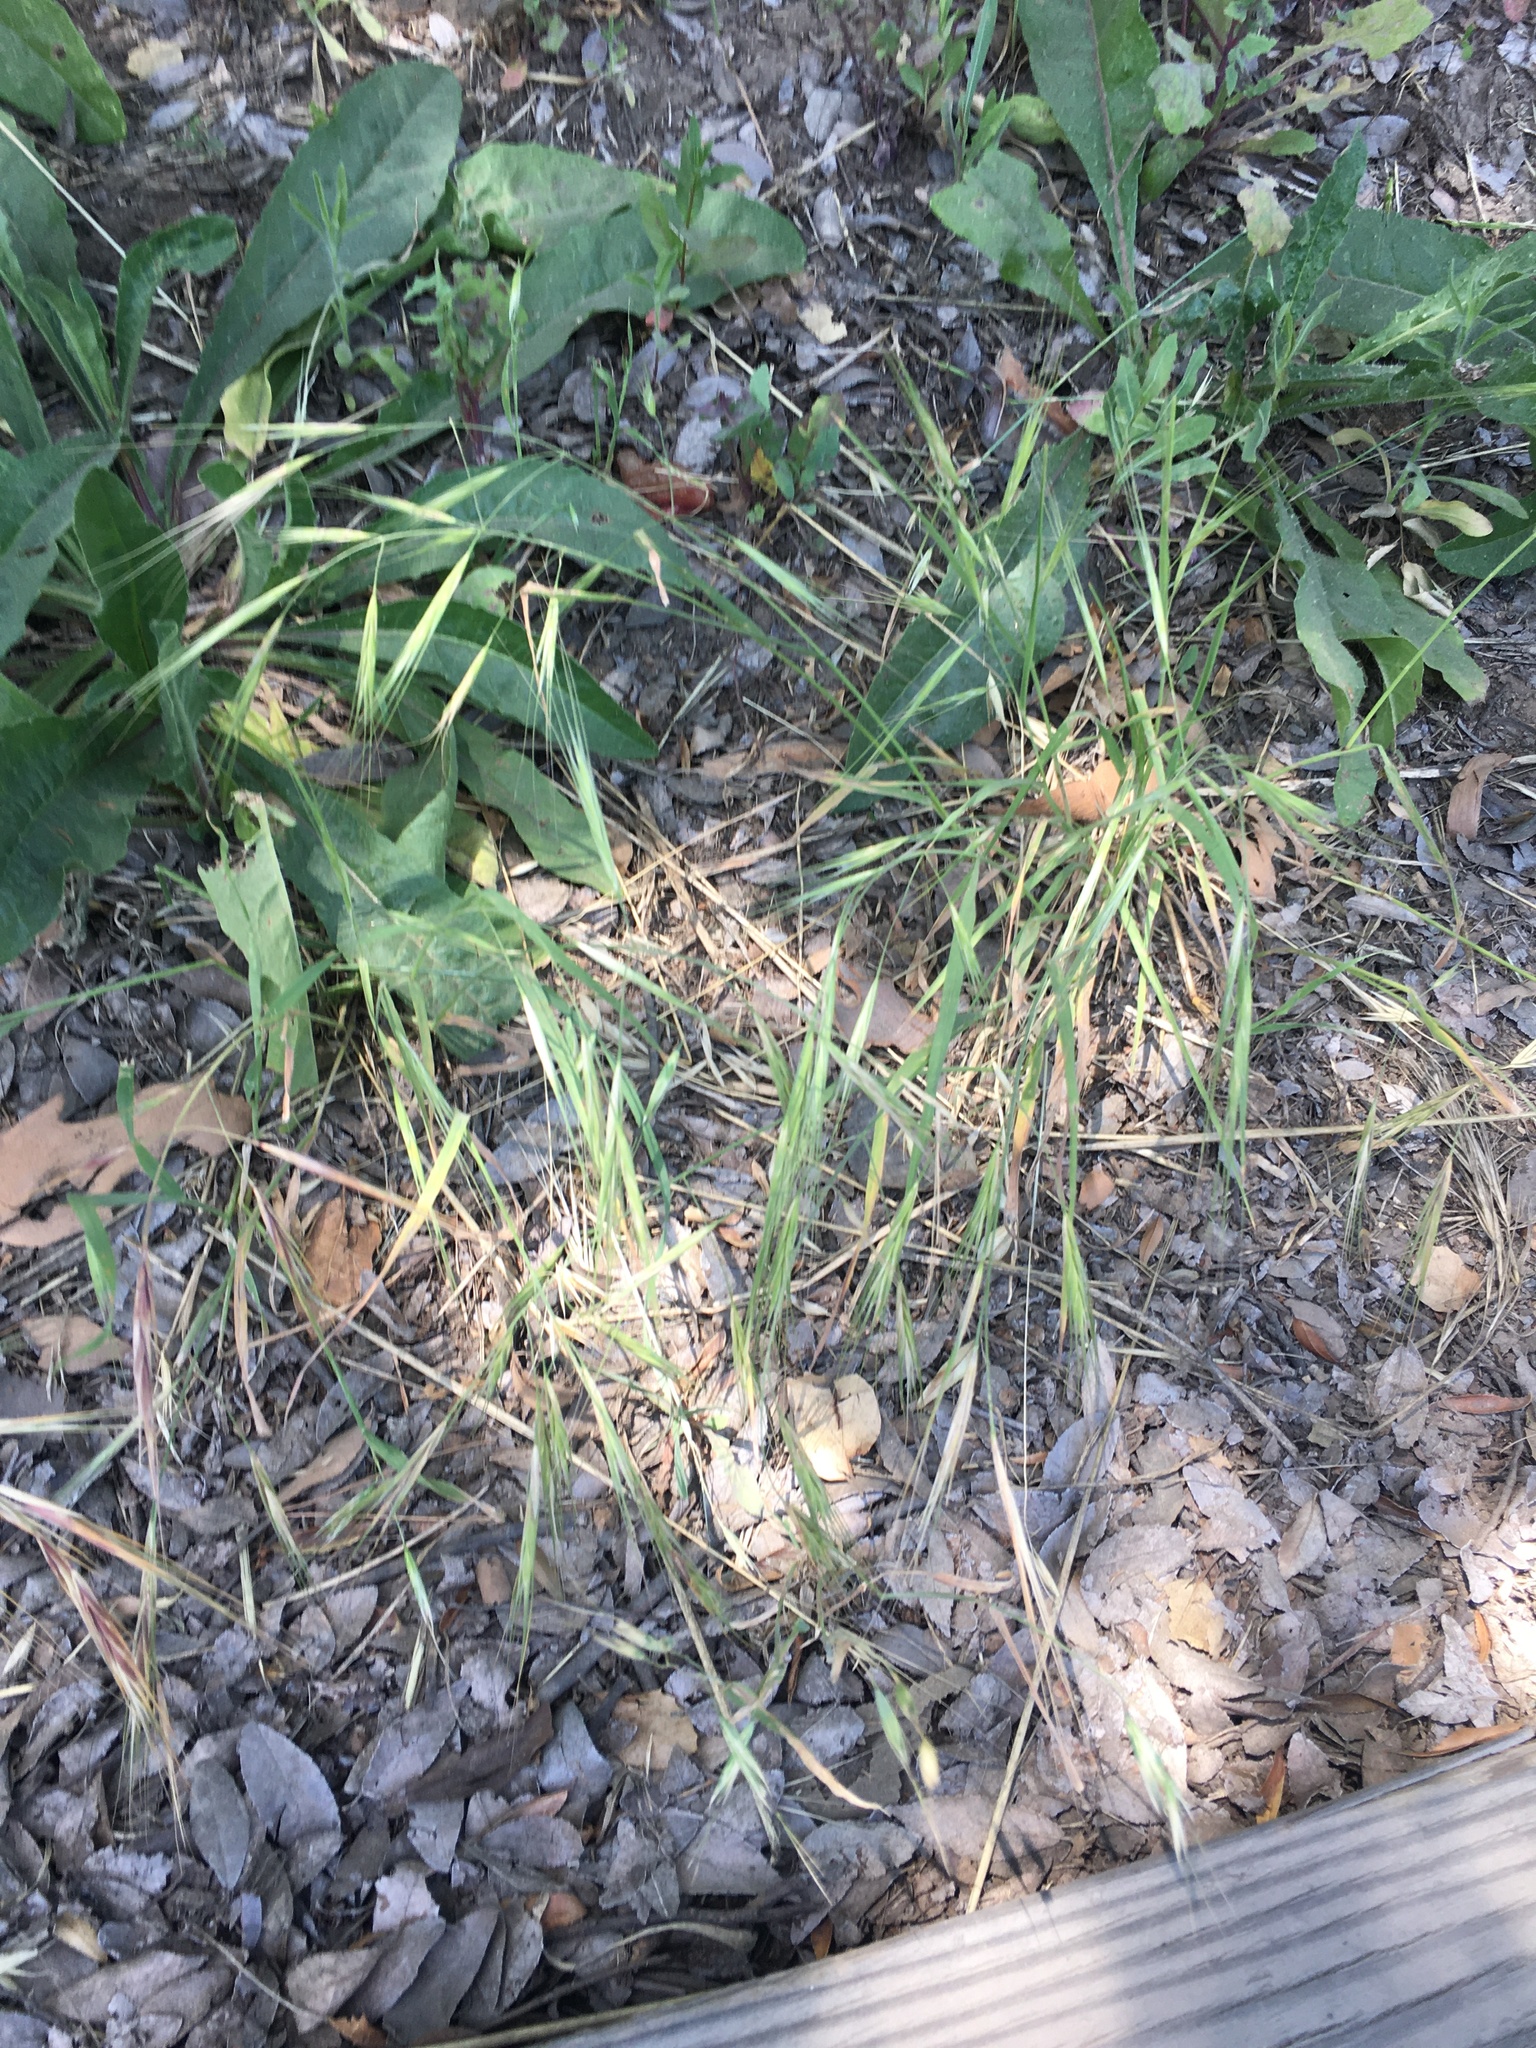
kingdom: Plantae
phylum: Tracheophyta
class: Liliopsida
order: Poales
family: Poaceae
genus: Bromus
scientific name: Bromus diandrus
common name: Ripgut brome
